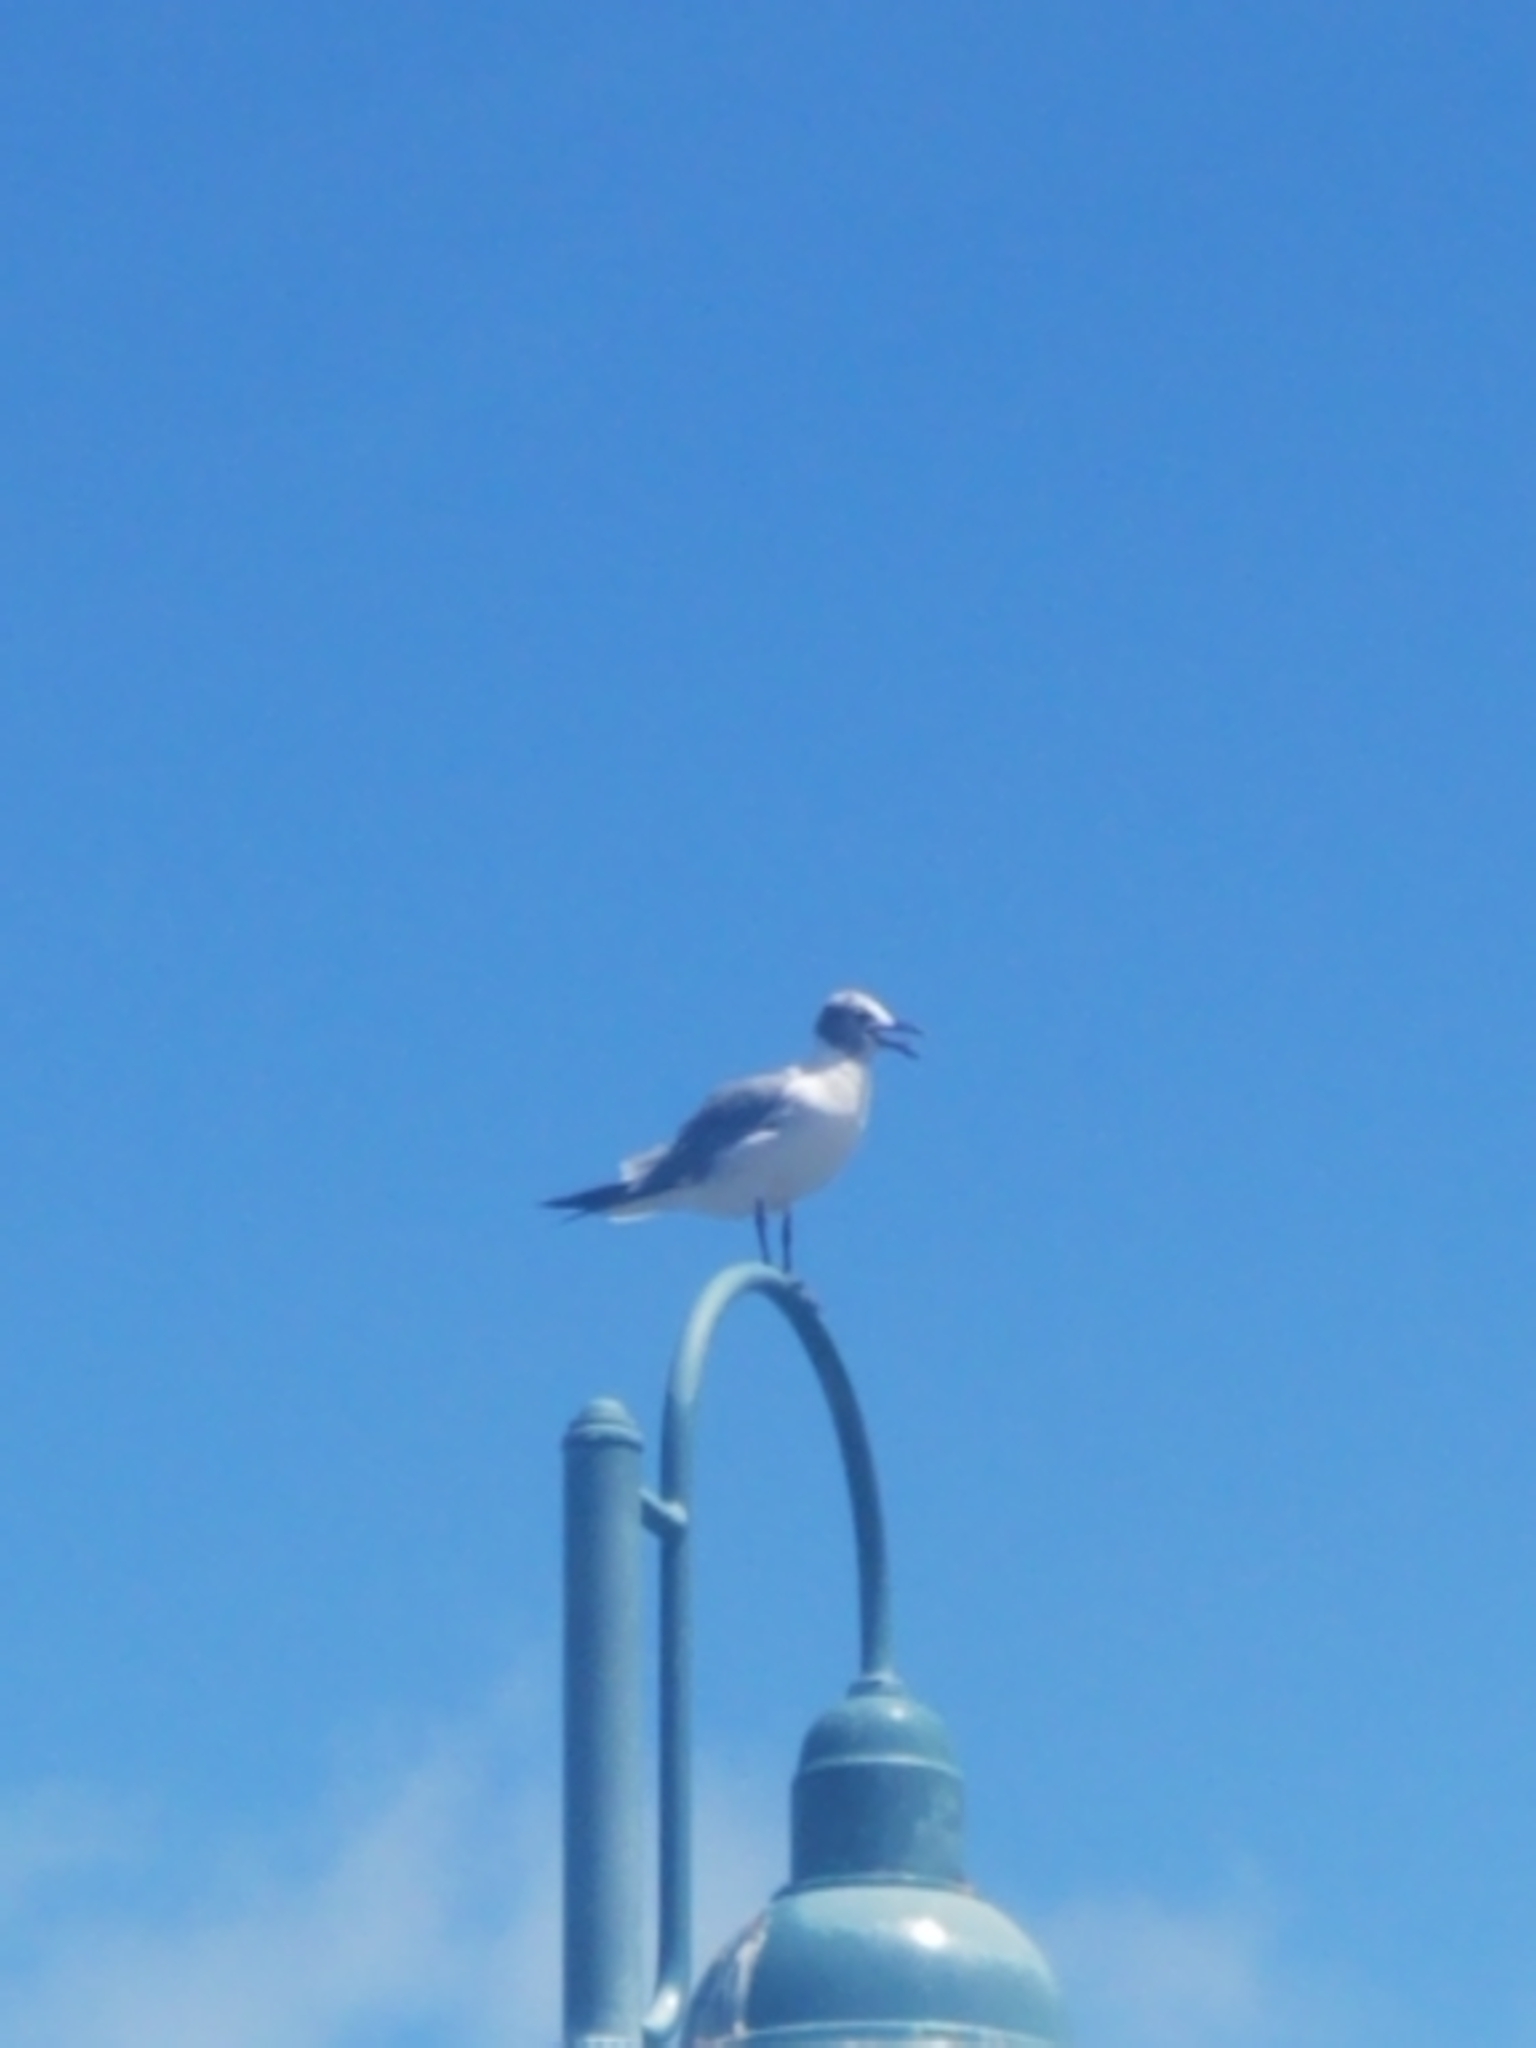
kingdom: Animalia
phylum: Chordata
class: Aves
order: Charadriiformes
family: Laridae
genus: Leucophaeus
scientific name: Leucophaeus atricilla
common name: Laughing gull
